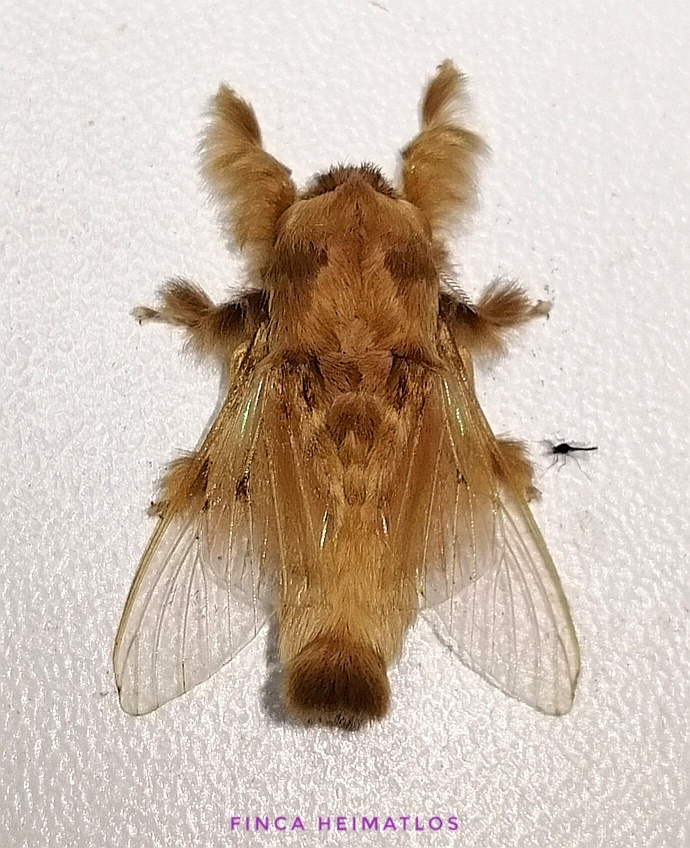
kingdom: Animalia
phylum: Arthropoda
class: Insecta
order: Lepidoptera
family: Lasiocampidae
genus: Titya
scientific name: Titya bella
